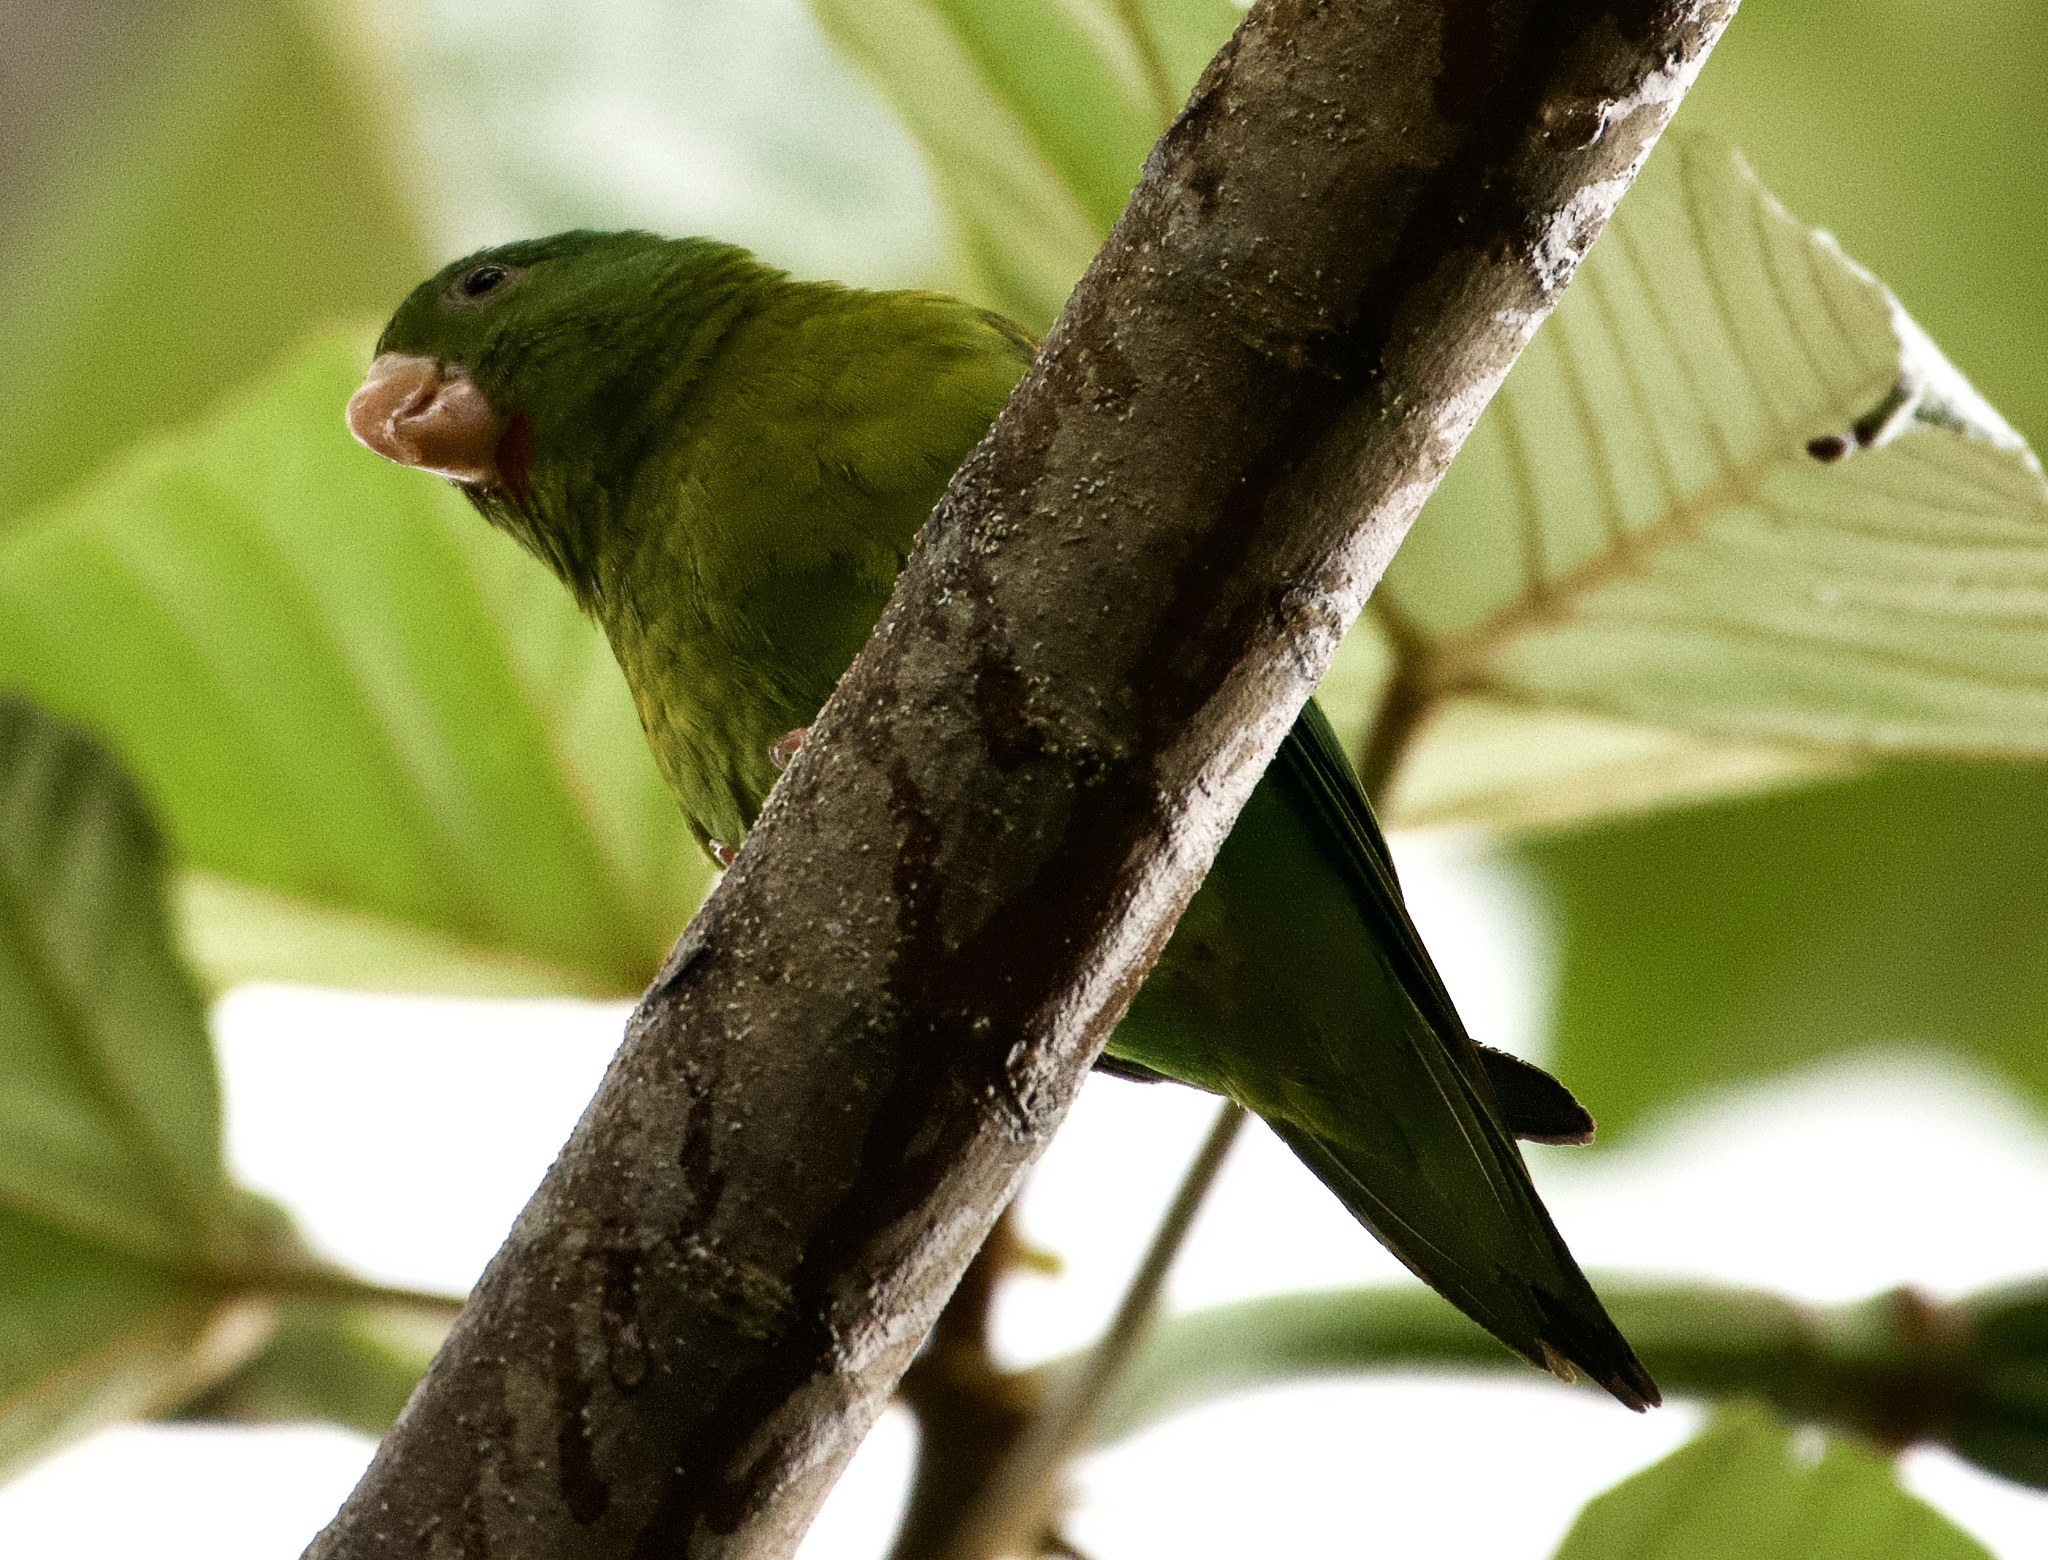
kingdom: Animalia
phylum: Chordata
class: Aves
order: Psittaciformes
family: Psittacidae
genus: Brotogeris
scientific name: Brotogeris jugularis
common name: Orange-chinned parakeet
